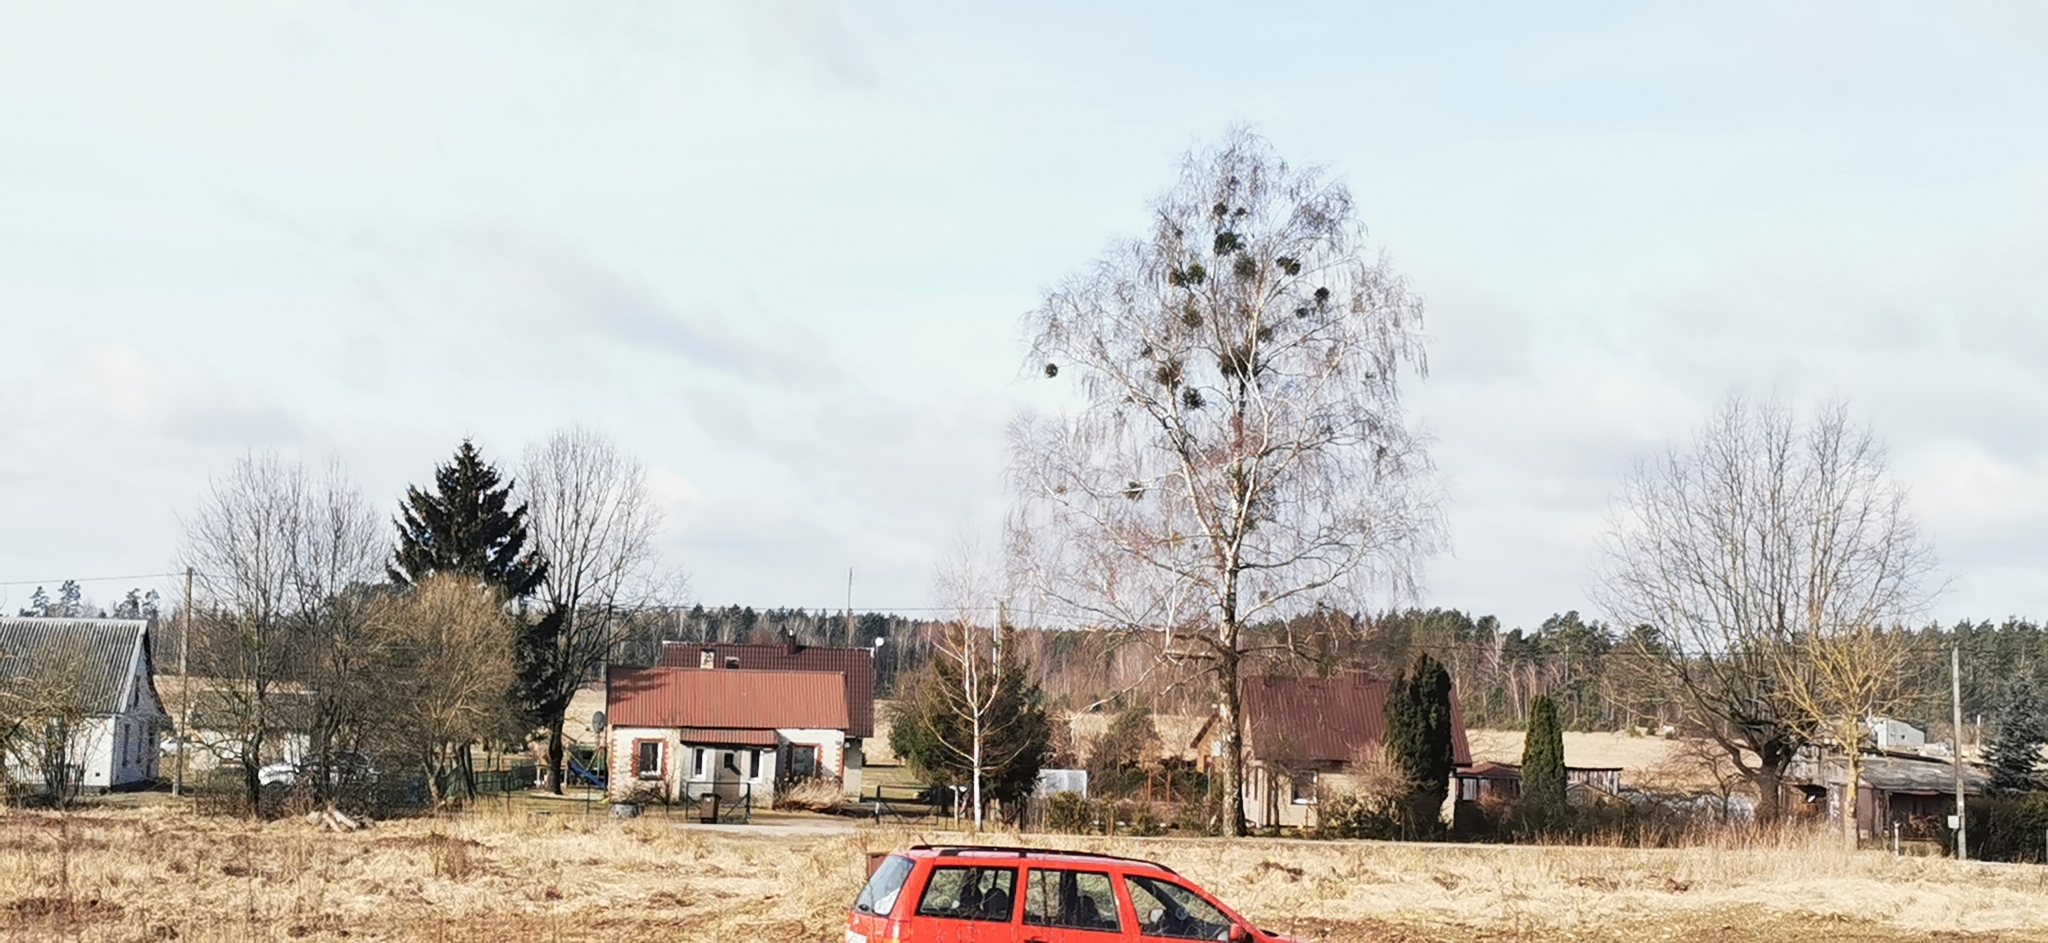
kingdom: Plantae
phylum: Tracheophyta
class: Magnoliopsida
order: Santalales
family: Viscaceae
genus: Viscum
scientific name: Viscum album
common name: Mistletoe
